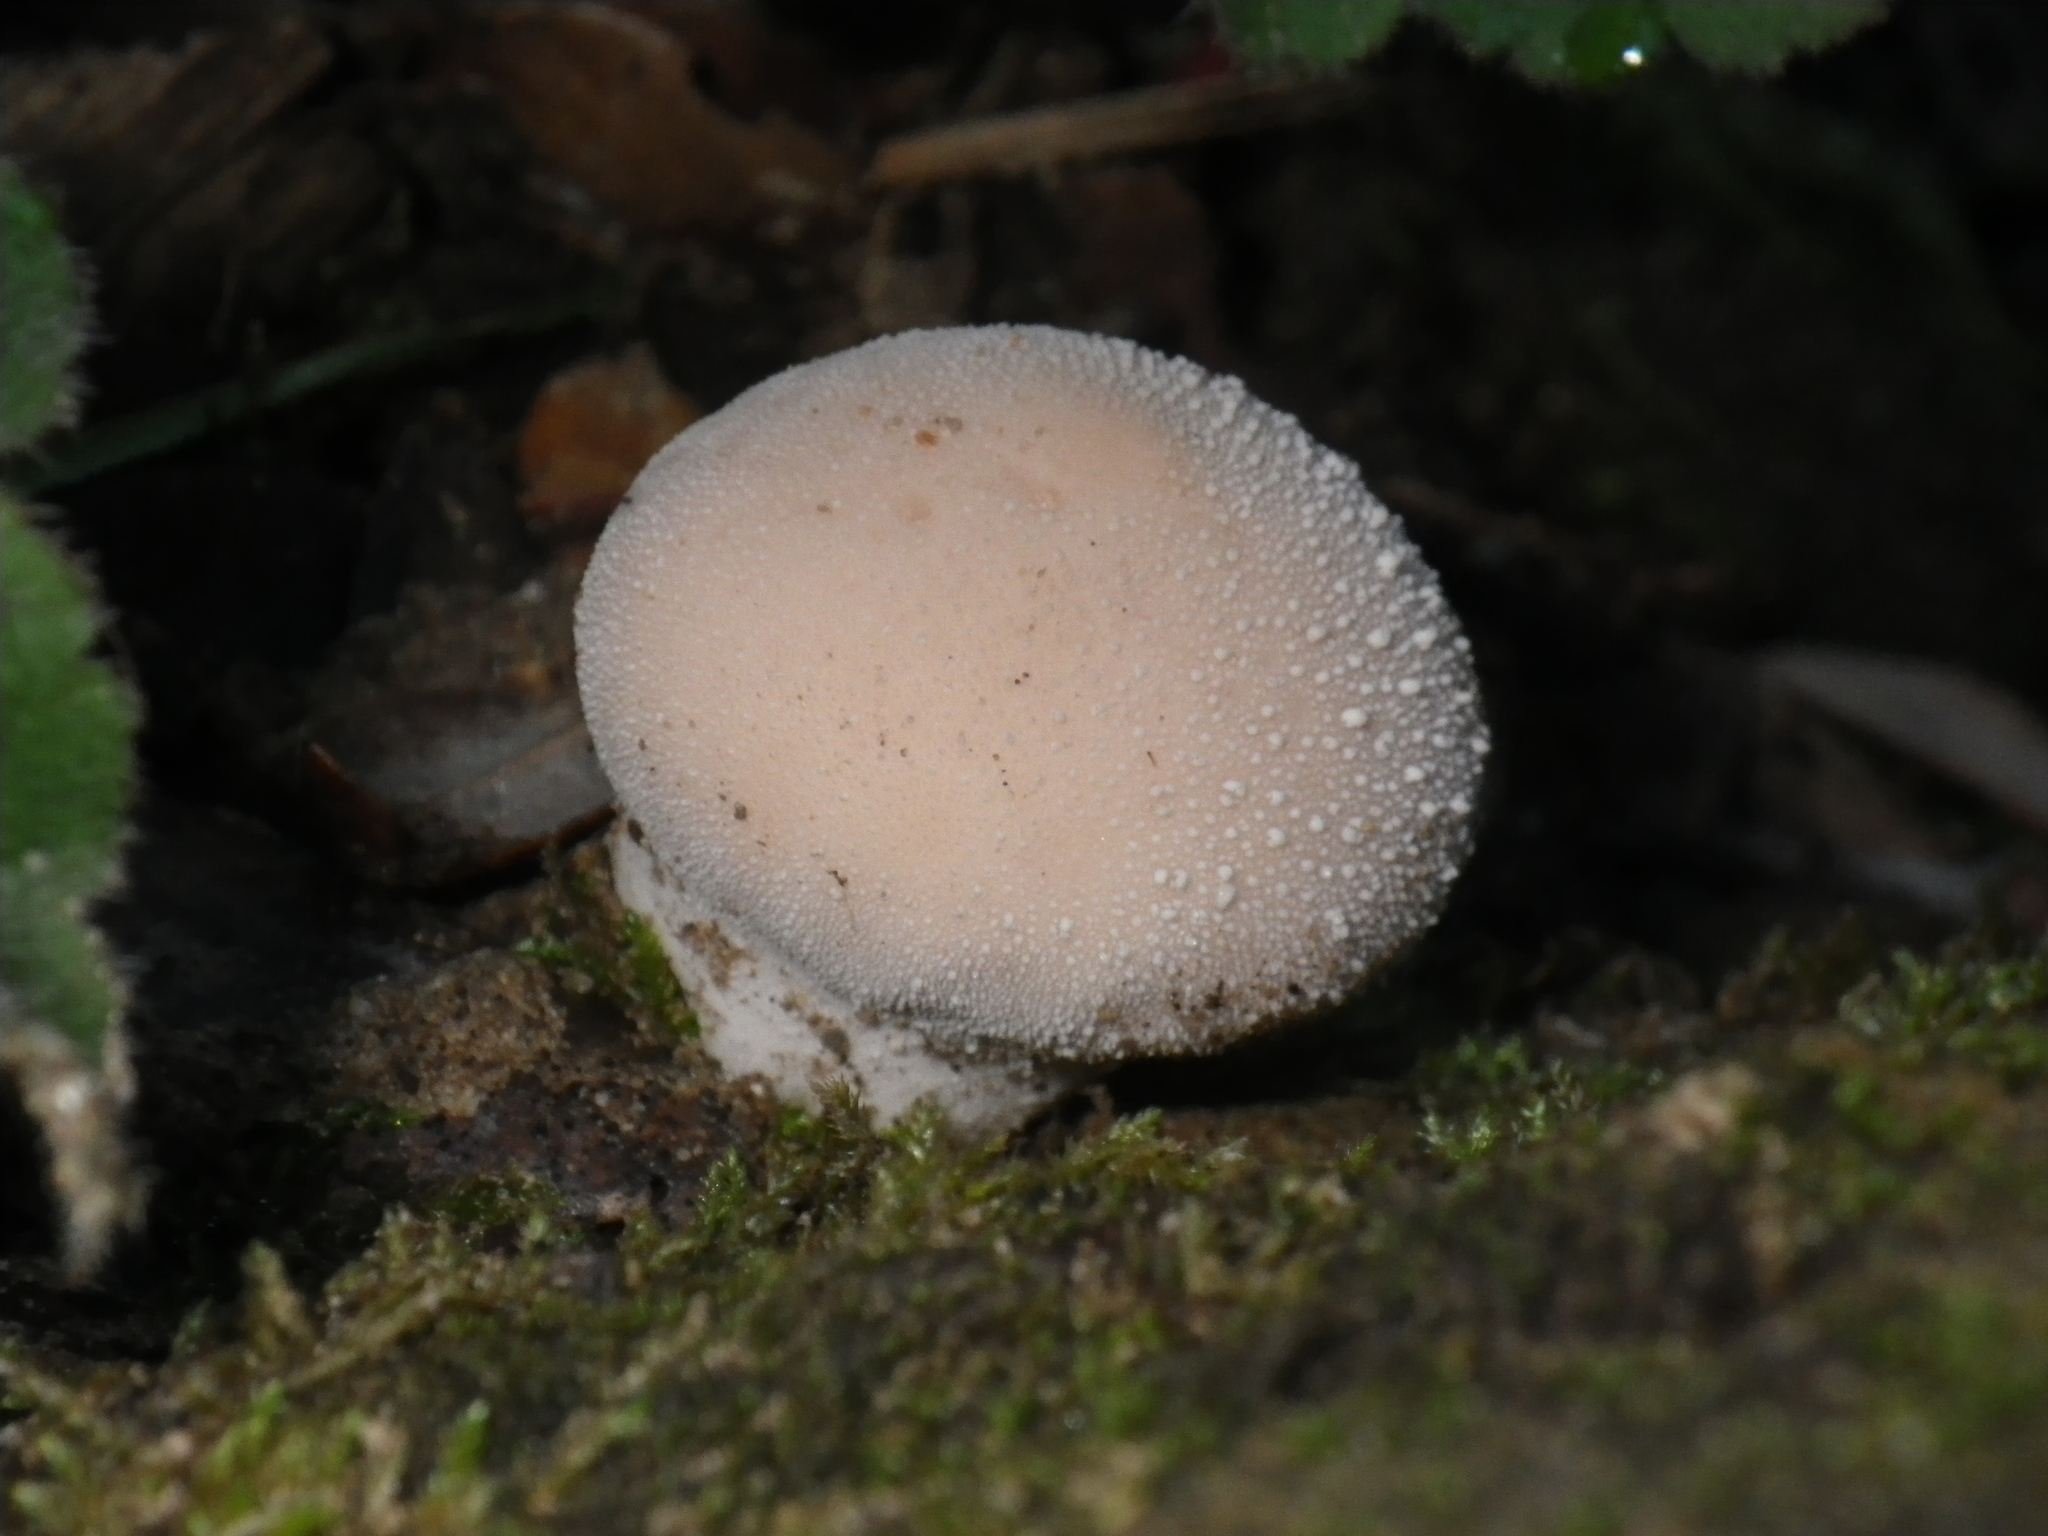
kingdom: Fungi
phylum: Basidiomycota
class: Agaricomycetes
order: Agaricales
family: Lycoperdaceae
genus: Lycoperdon
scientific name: Lycoperdon perlatum
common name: Common puffball
